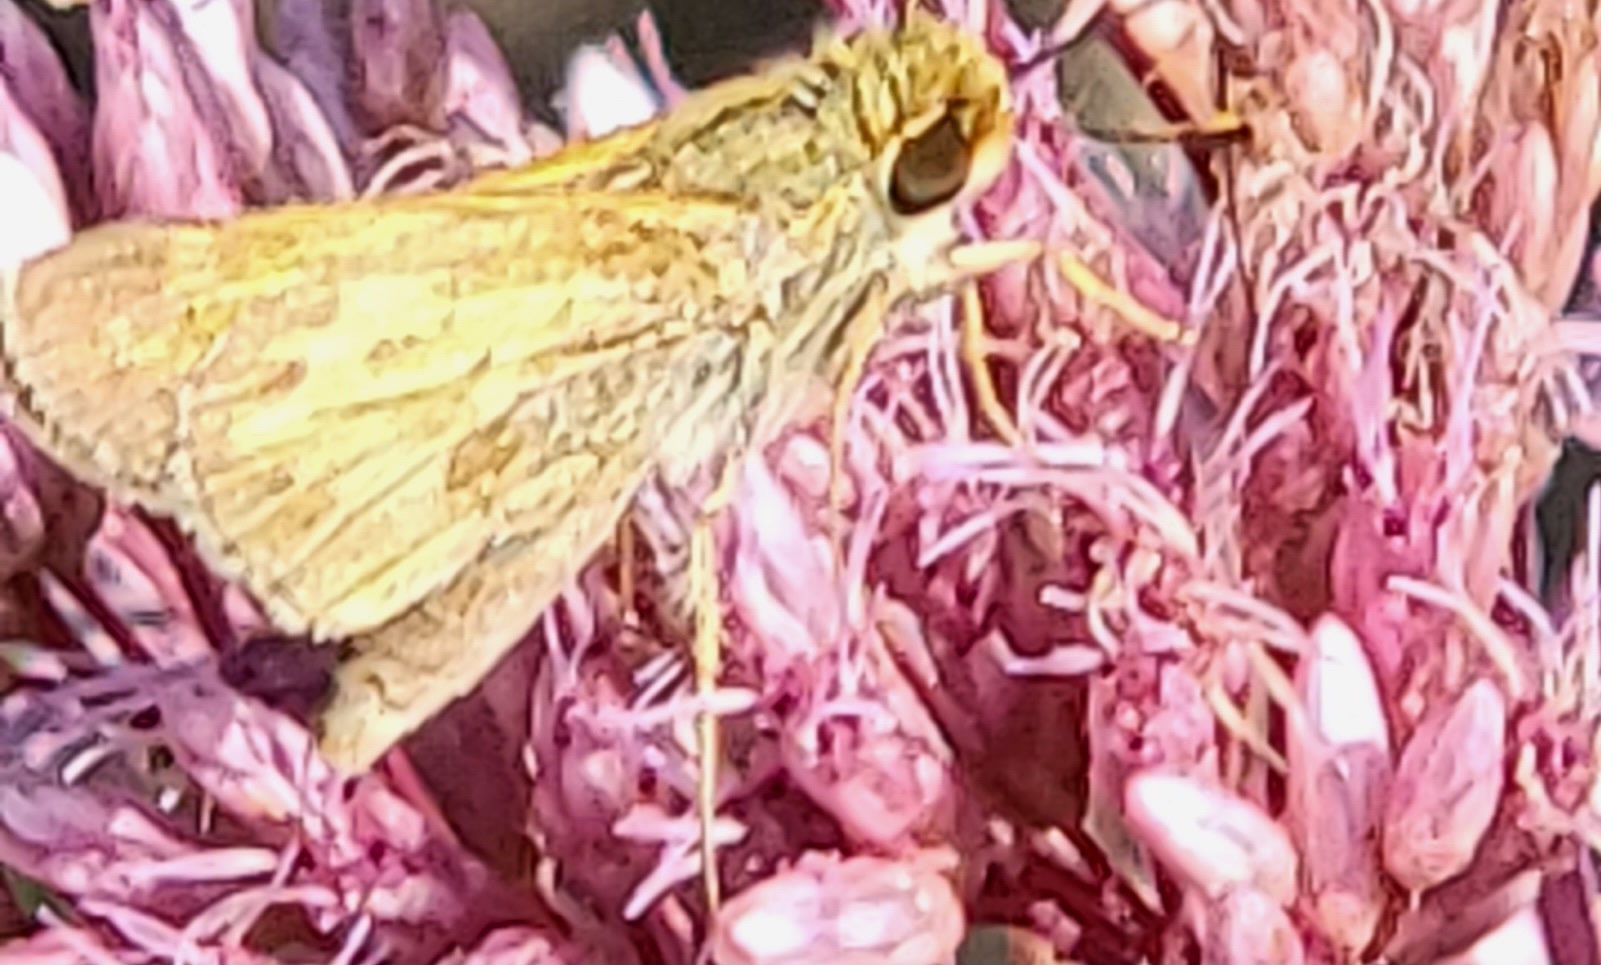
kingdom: Animalia
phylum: Arthropoda
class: Insecta
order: Lepidoptera
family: Hesperiidae
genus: Atalopedes
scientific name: Atalopedes
